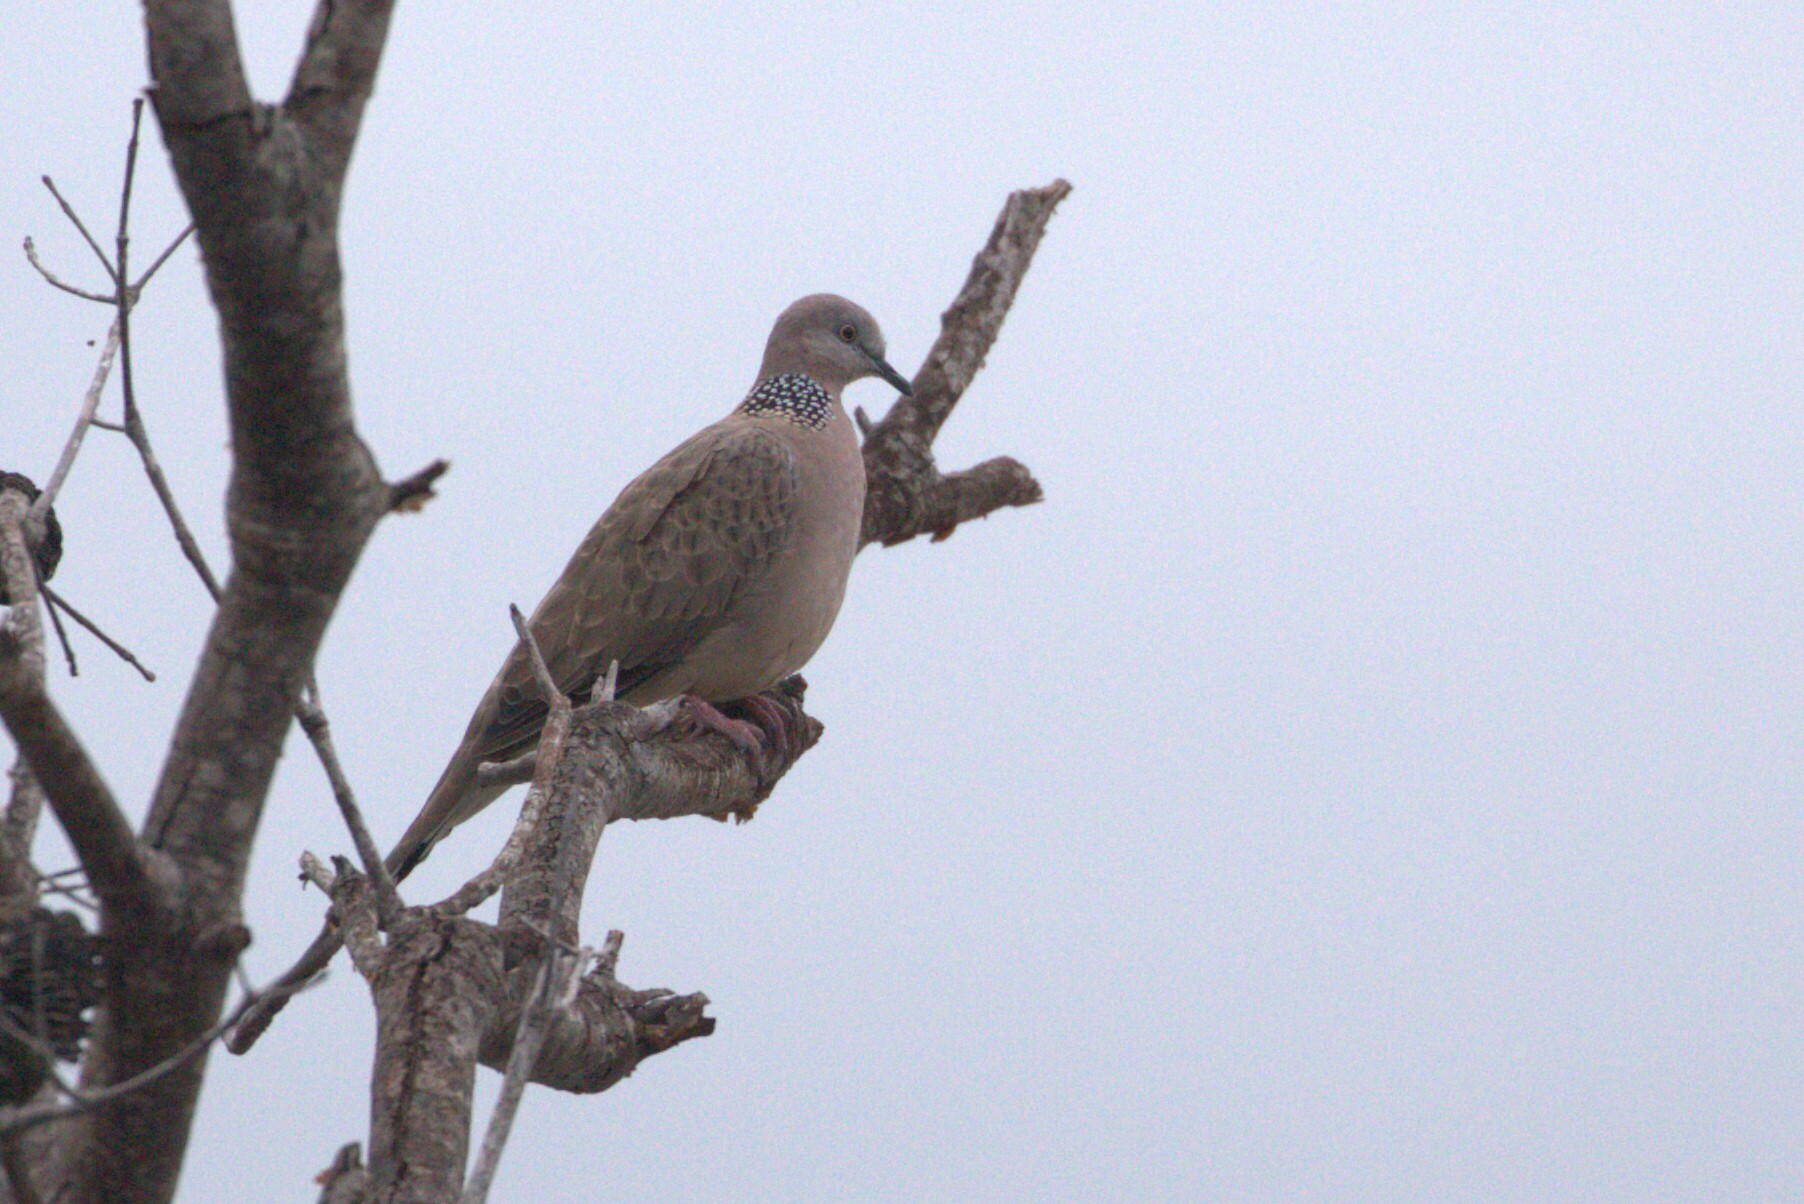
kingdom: Animalia
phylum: Chordata
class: Aves
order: Columbiformes
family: Columbidae
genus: Spilopelia
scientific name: Spilopelia chinensis
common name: Spotted dove
